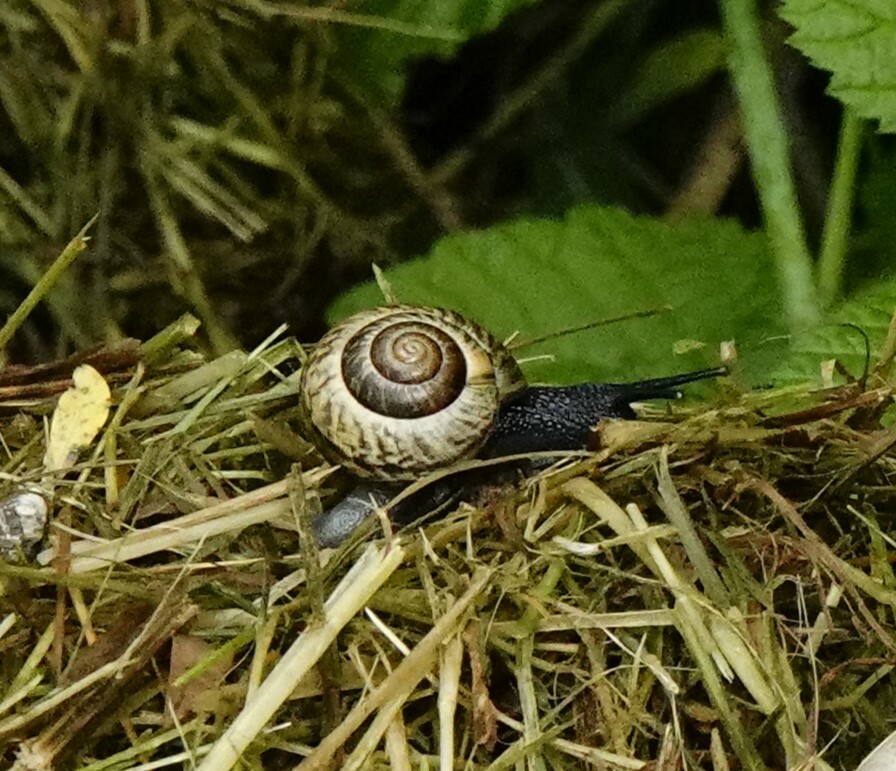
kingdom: Animalia
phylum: Mollusca
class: Gastropoda
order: Stylommatophora
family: Helicidae
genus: Arianta
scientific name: Arianta arbustorum
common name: Copse snail
